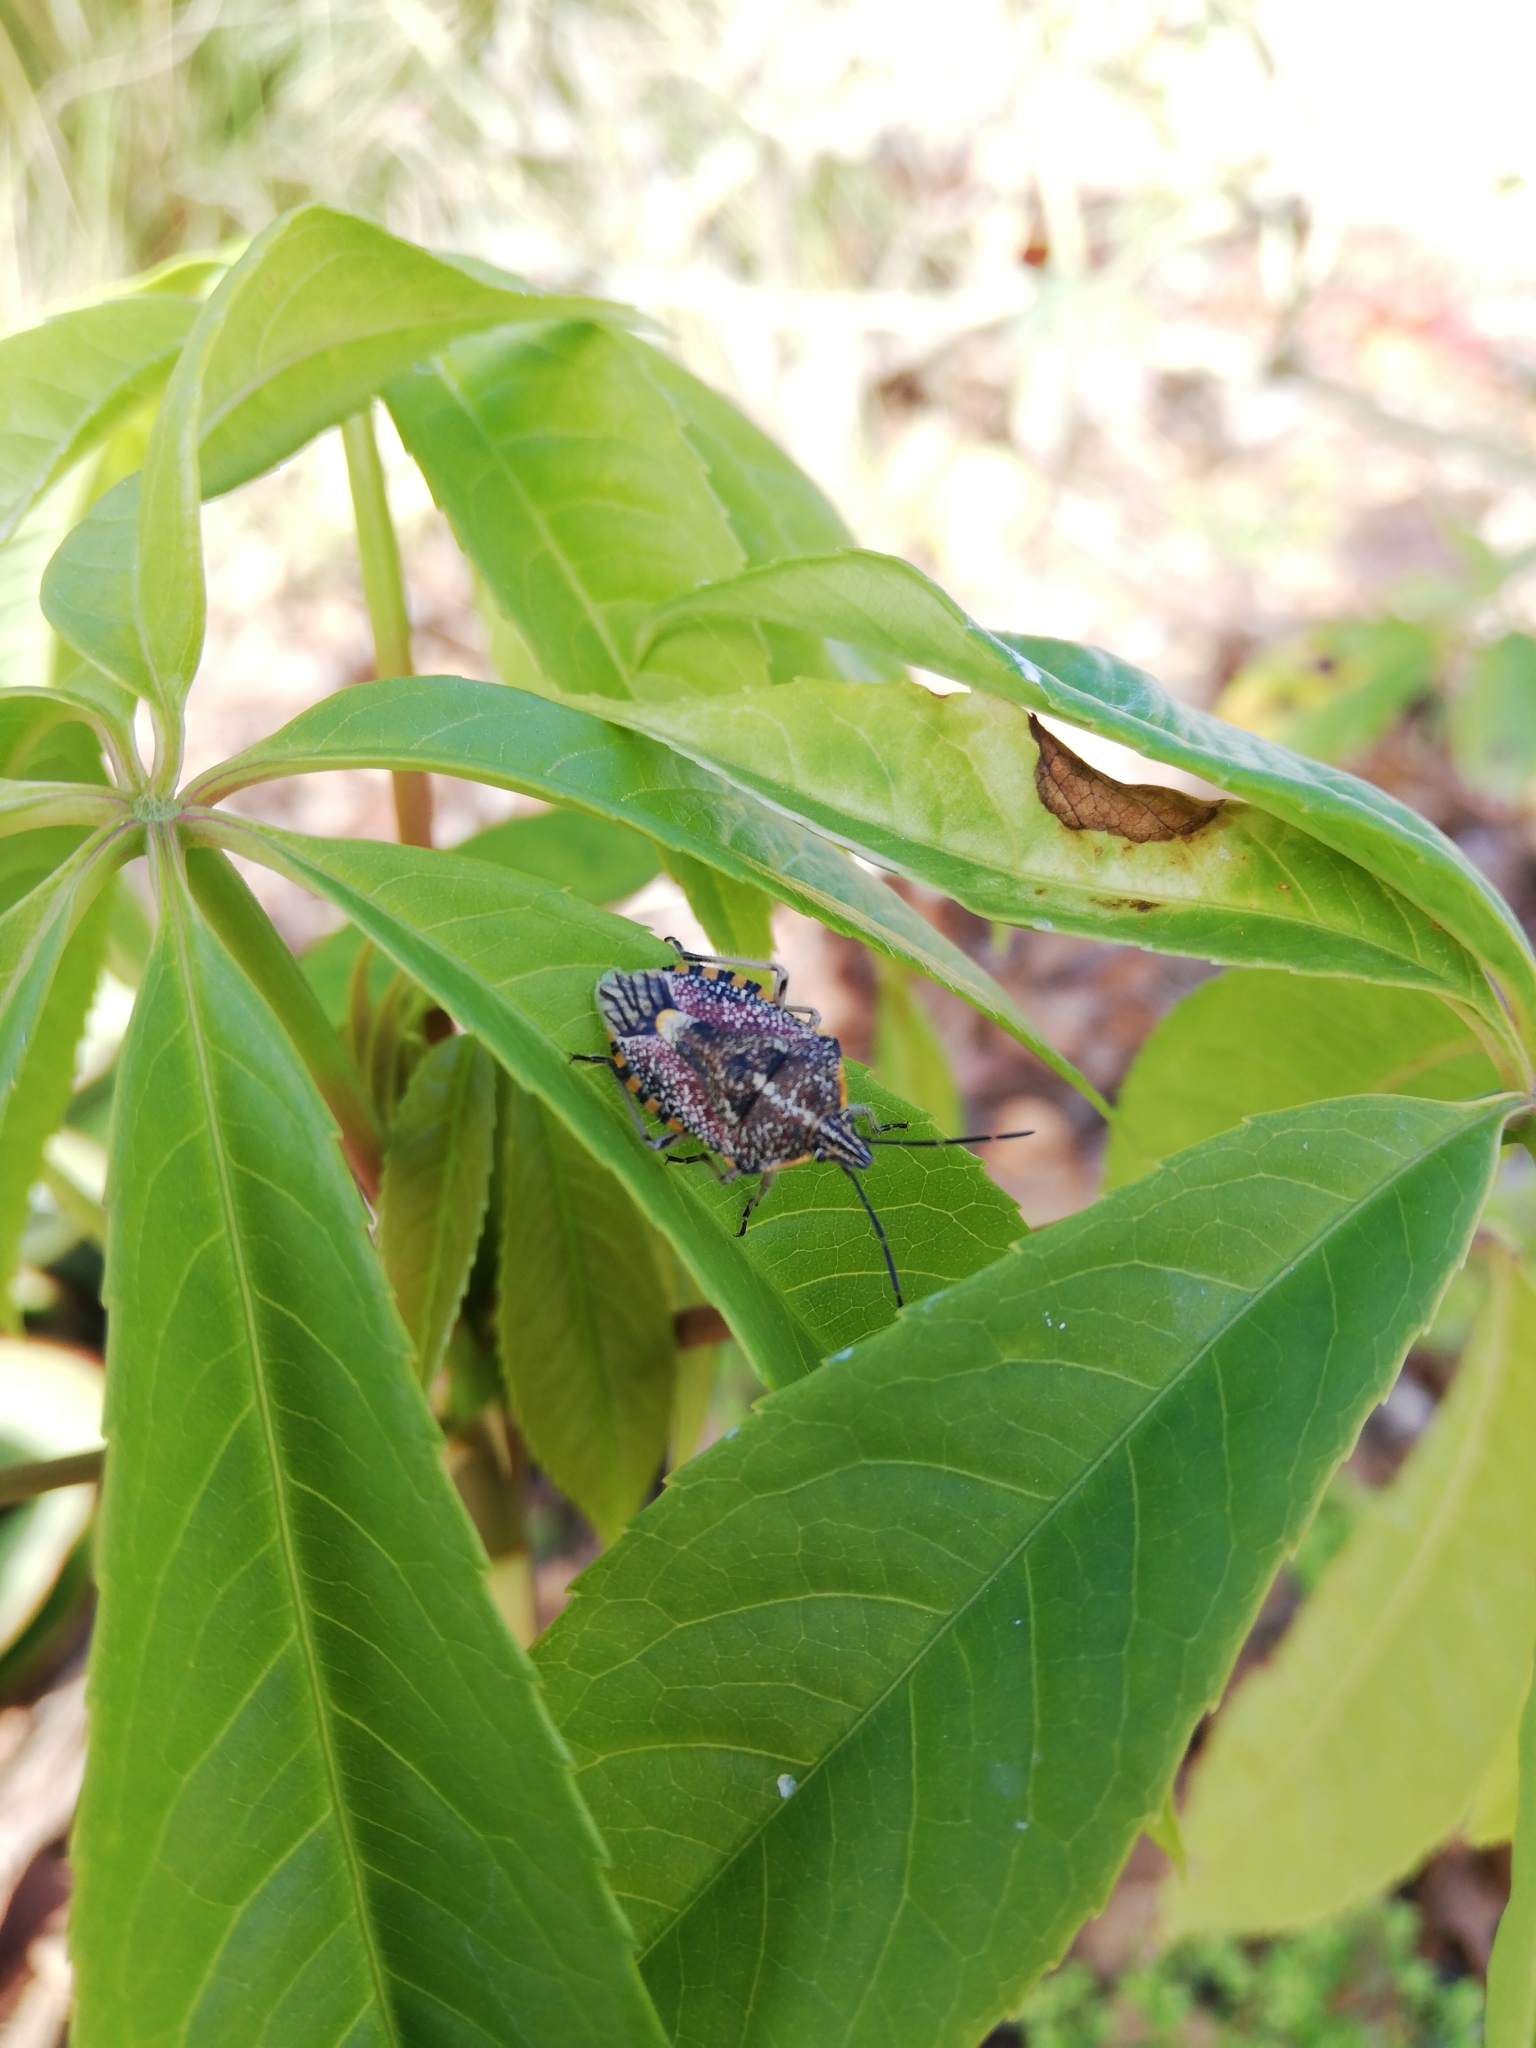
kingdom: Animalia
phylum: Arthropoda
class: Insecta
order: Hemiptera
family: Pentatomidae
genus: Agonoscelis
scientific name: Agonoscelis versicoloratus
